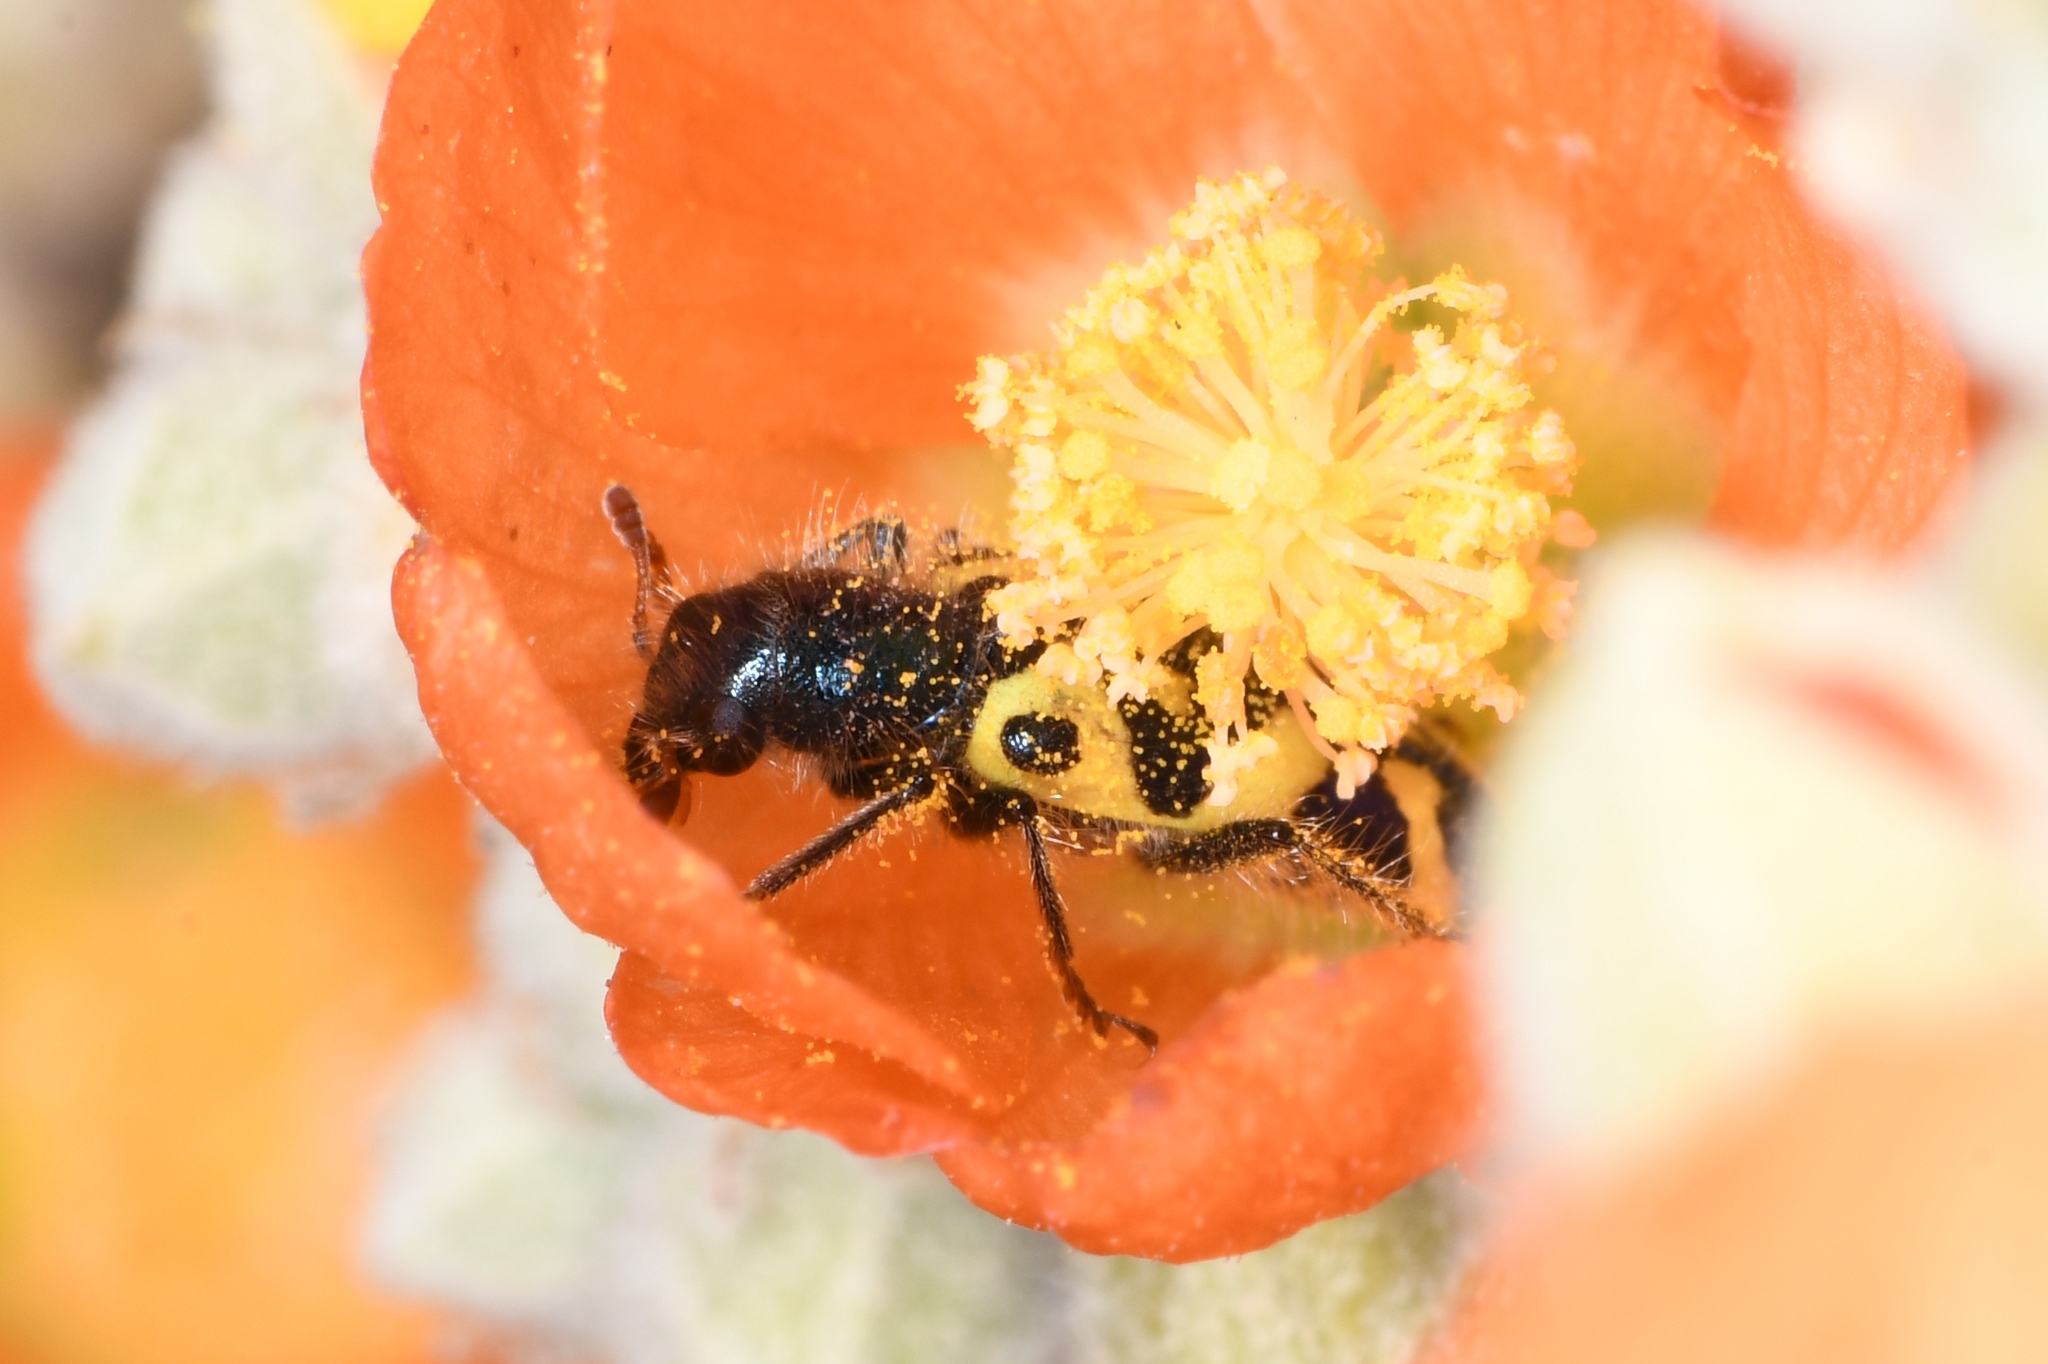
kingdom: Animalia
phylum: Arthropoda
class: Insecta
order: Coleoptera
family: Cleridae
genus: Trichodes
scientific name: Trichodes ornatus
